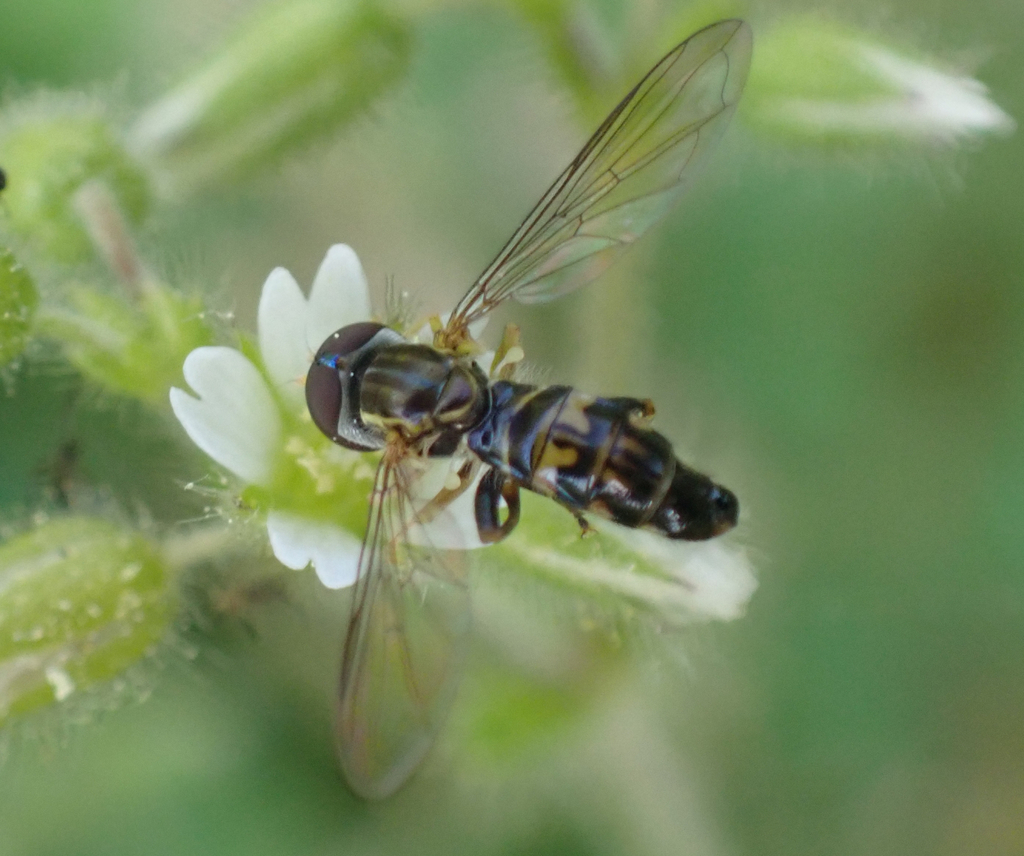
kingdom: Animalia
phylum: Arthropoda
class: Insecta
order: Diptera
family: Syrphidae
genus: Toxomerus
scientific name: Toxomerus geminatus
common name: Eastern calligrapher
